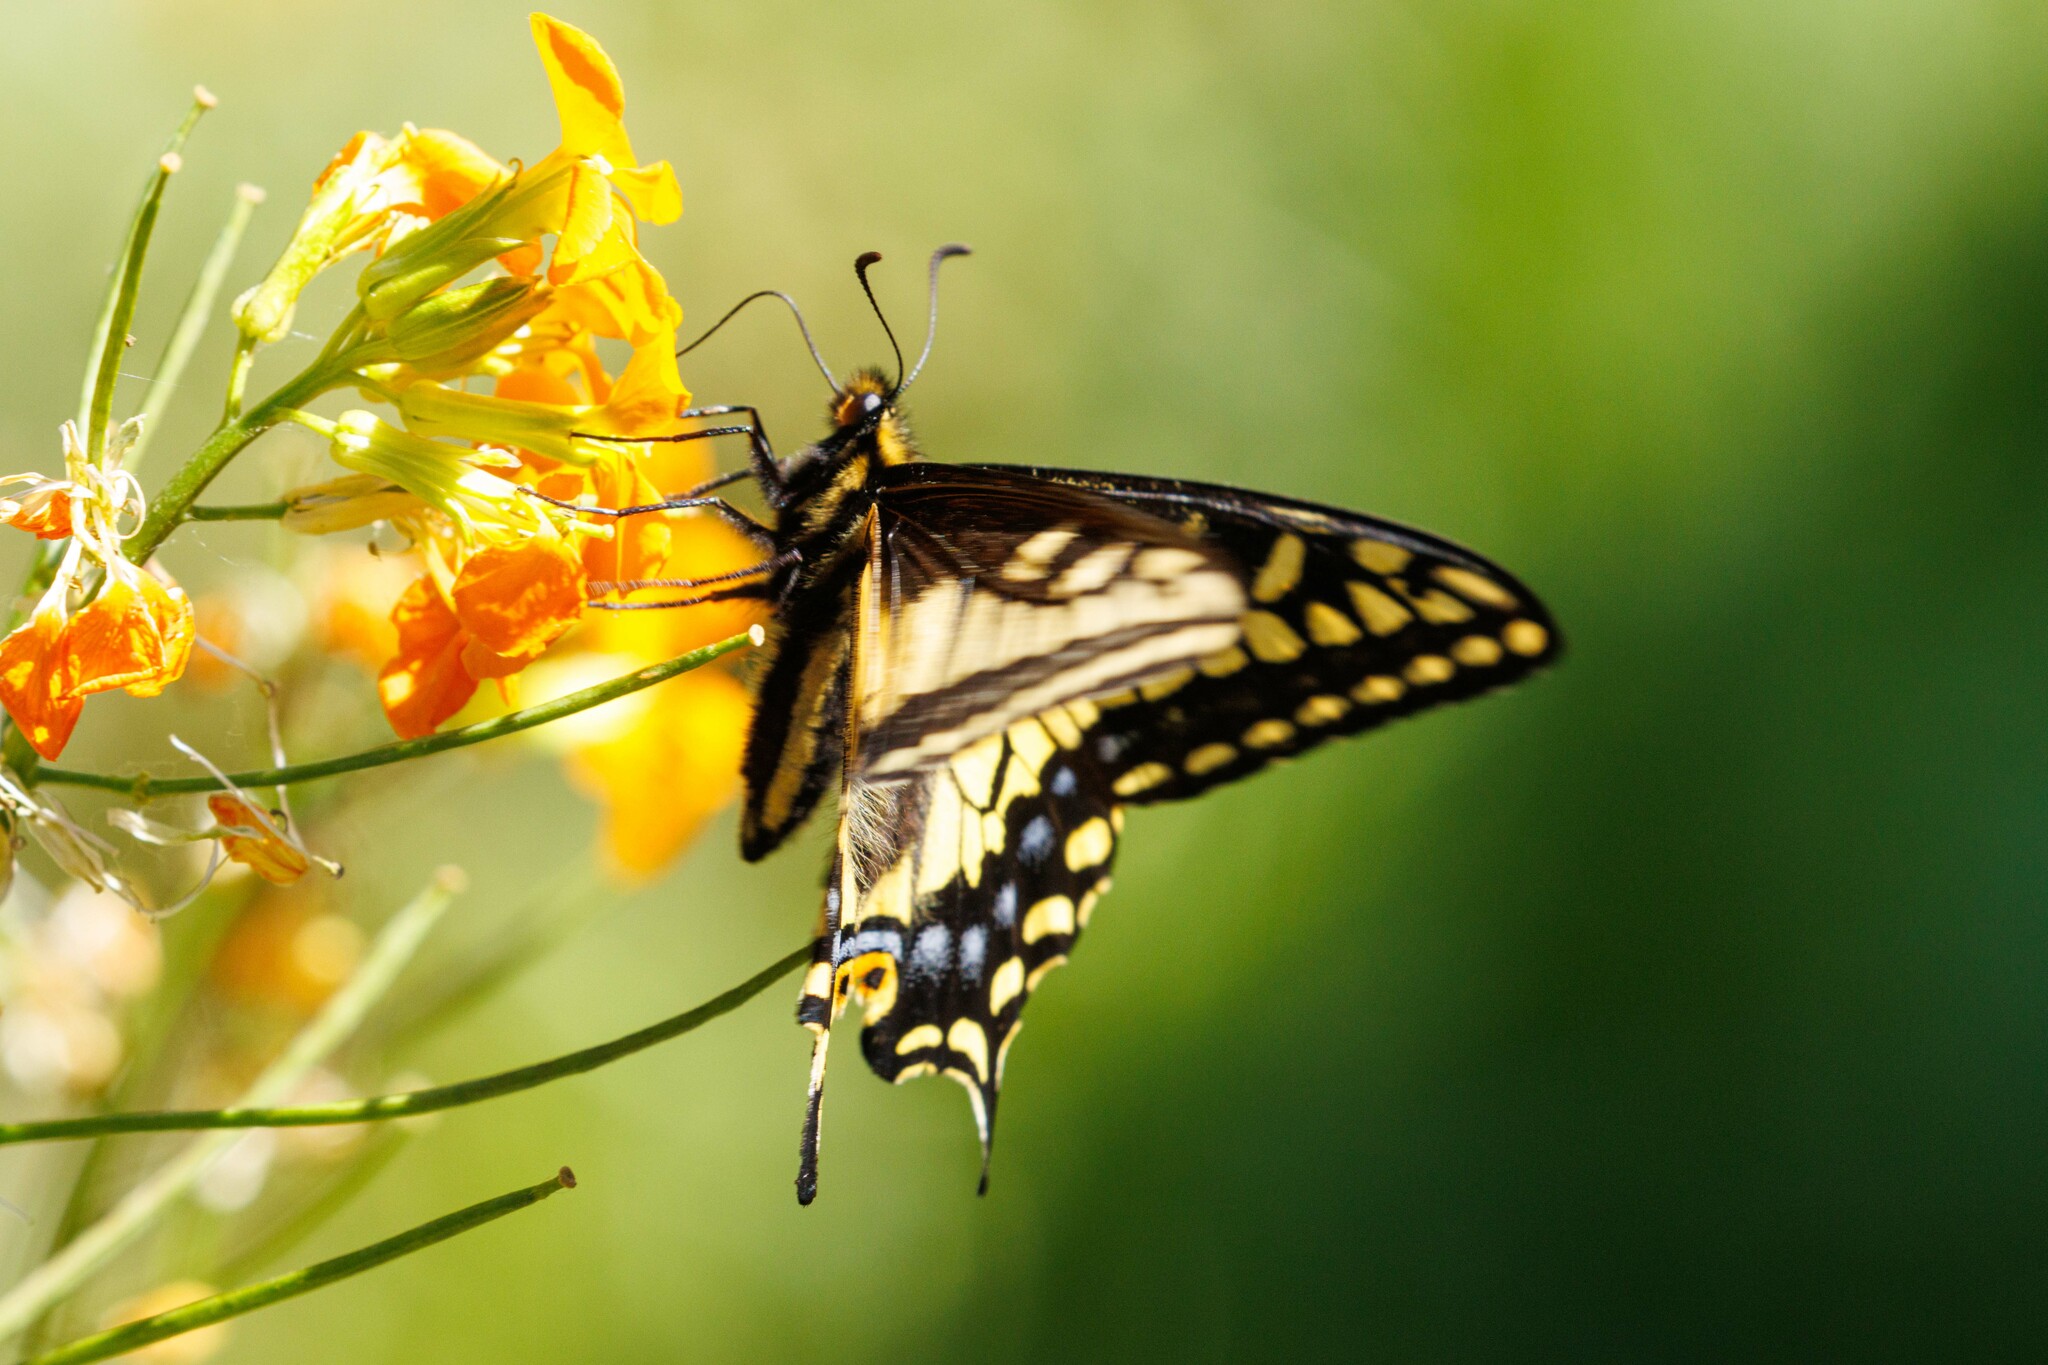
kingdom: Animalia
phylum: Arthropoda
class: Insecta
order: Lepidoptera
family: Papilionidae
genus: Papilio
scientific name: Papilio zelicaon
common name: Anise swallowtail
